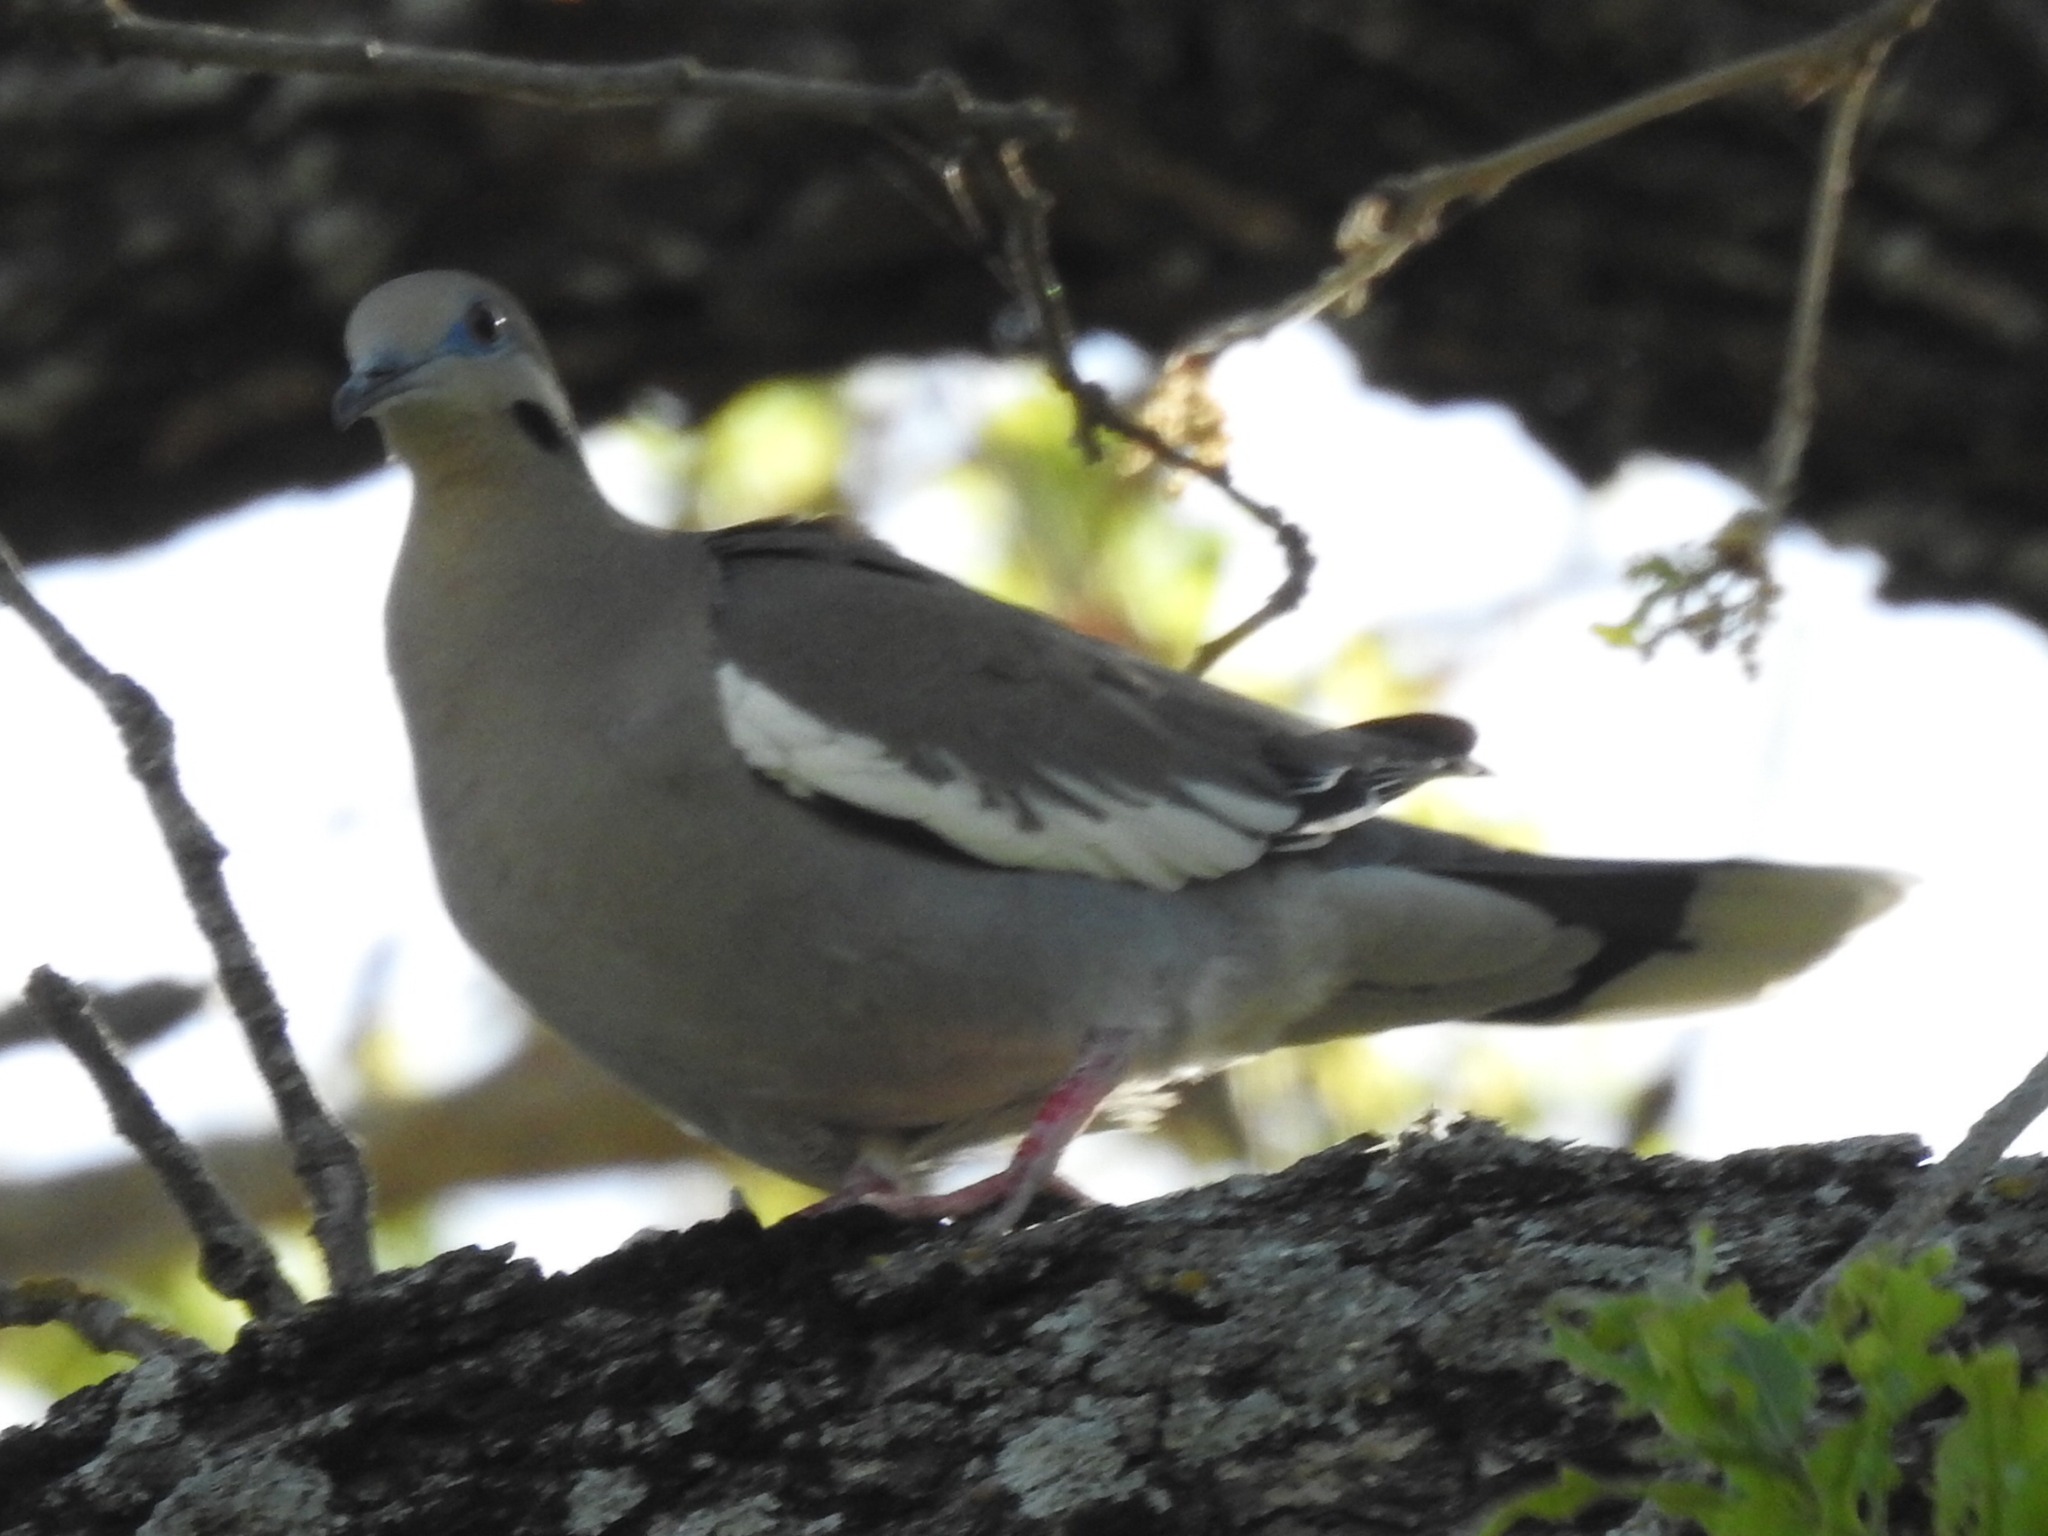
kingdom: Animalia
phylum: Chordata
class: Aves
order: Columbiformes
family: Columbidae
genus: Zenaida
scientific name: Zenaida asiatica
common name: White-winged dove
